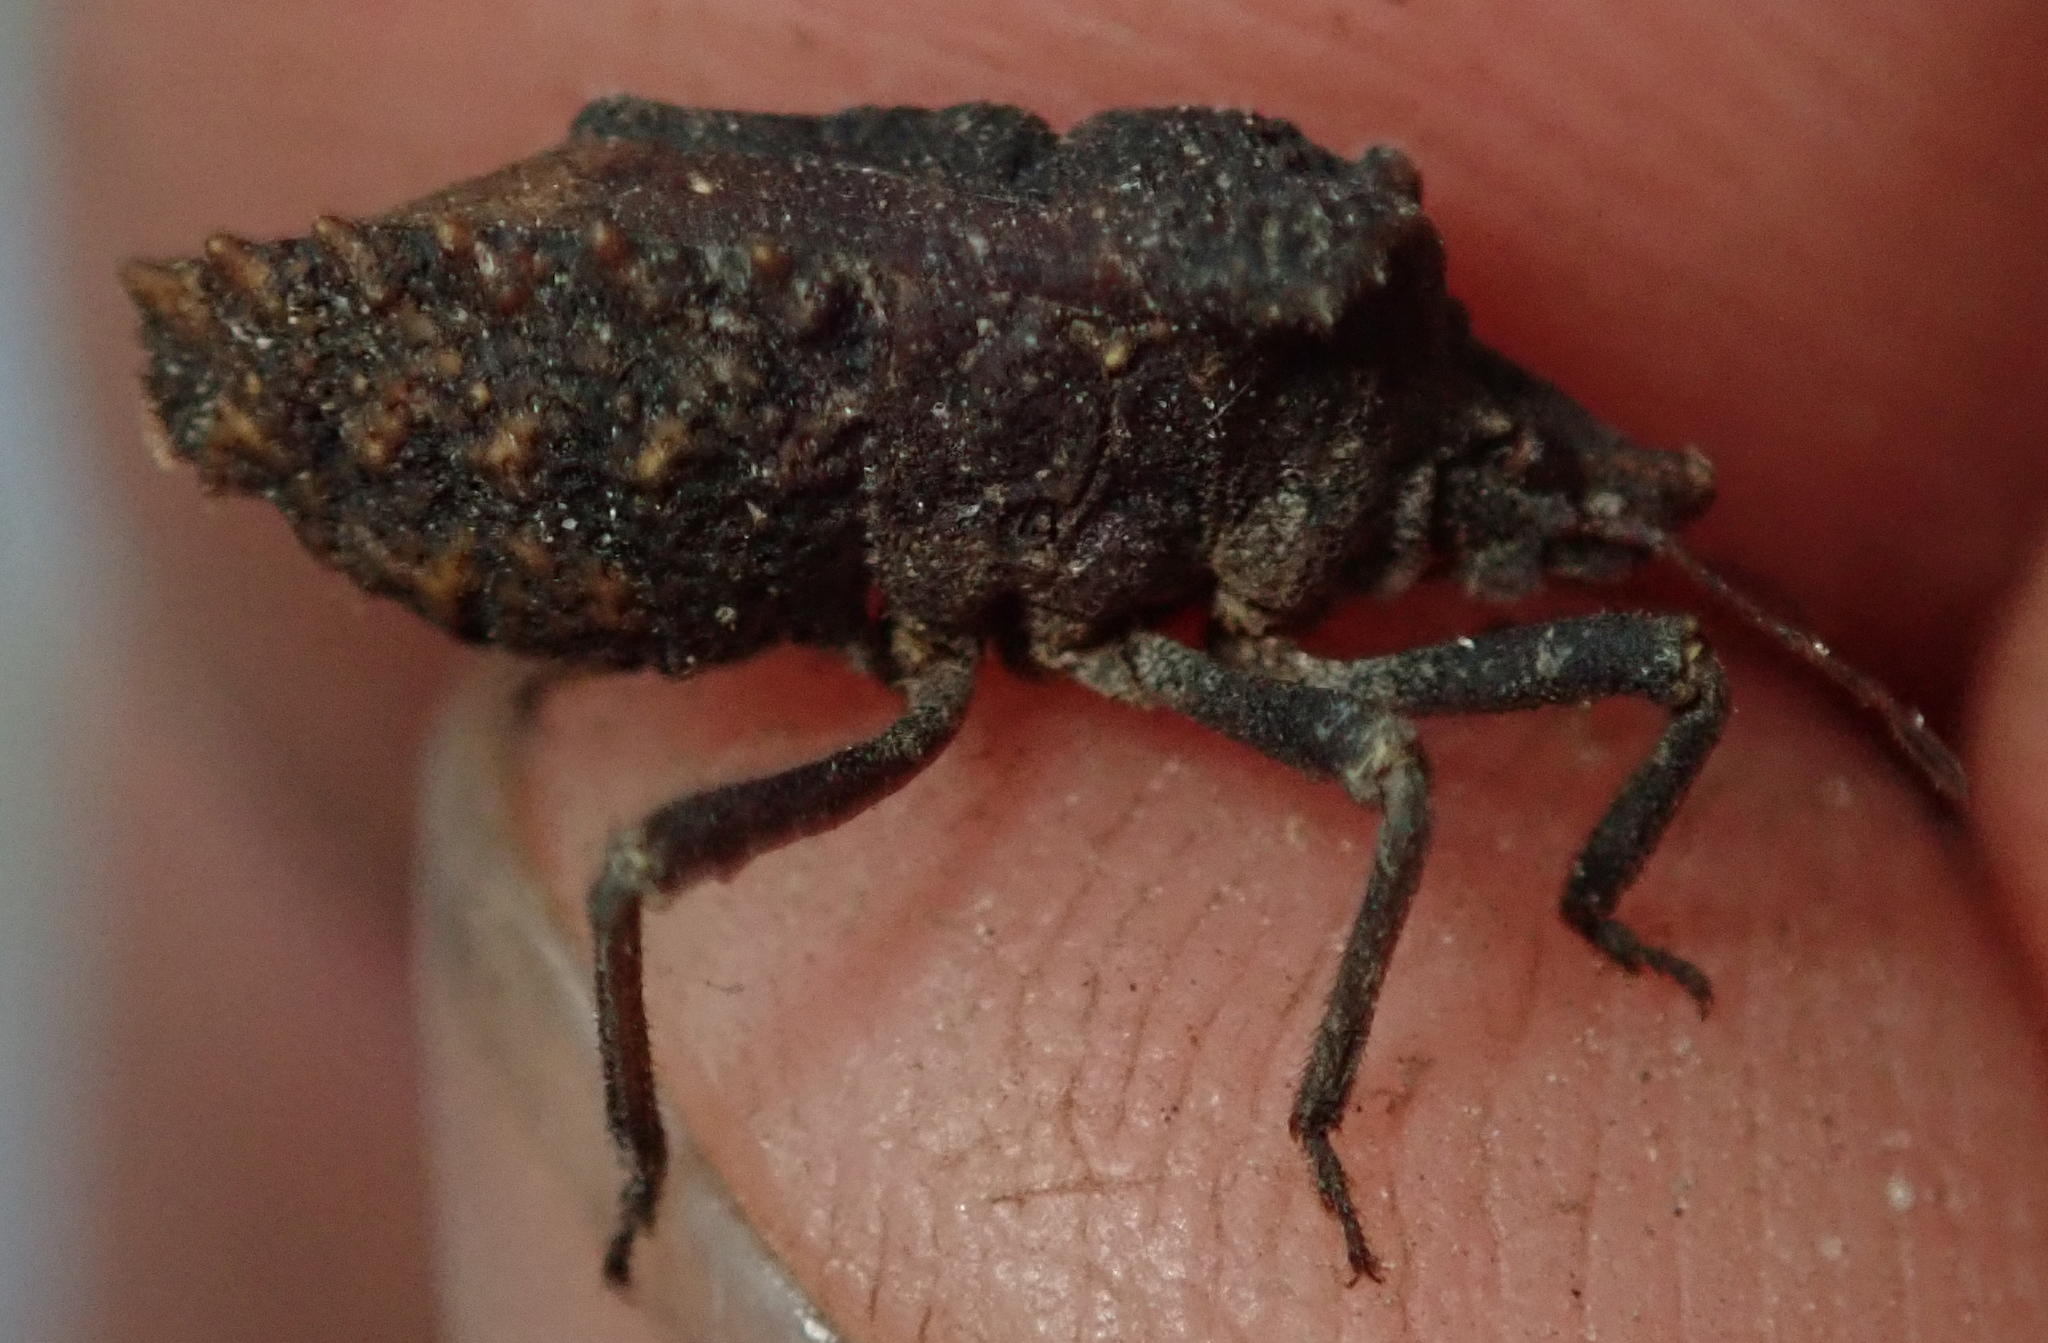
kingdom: Animalia
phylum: Arthropoda
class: Insecta
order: Hemiptera
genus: Geomorpha
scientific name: Geomorpha
